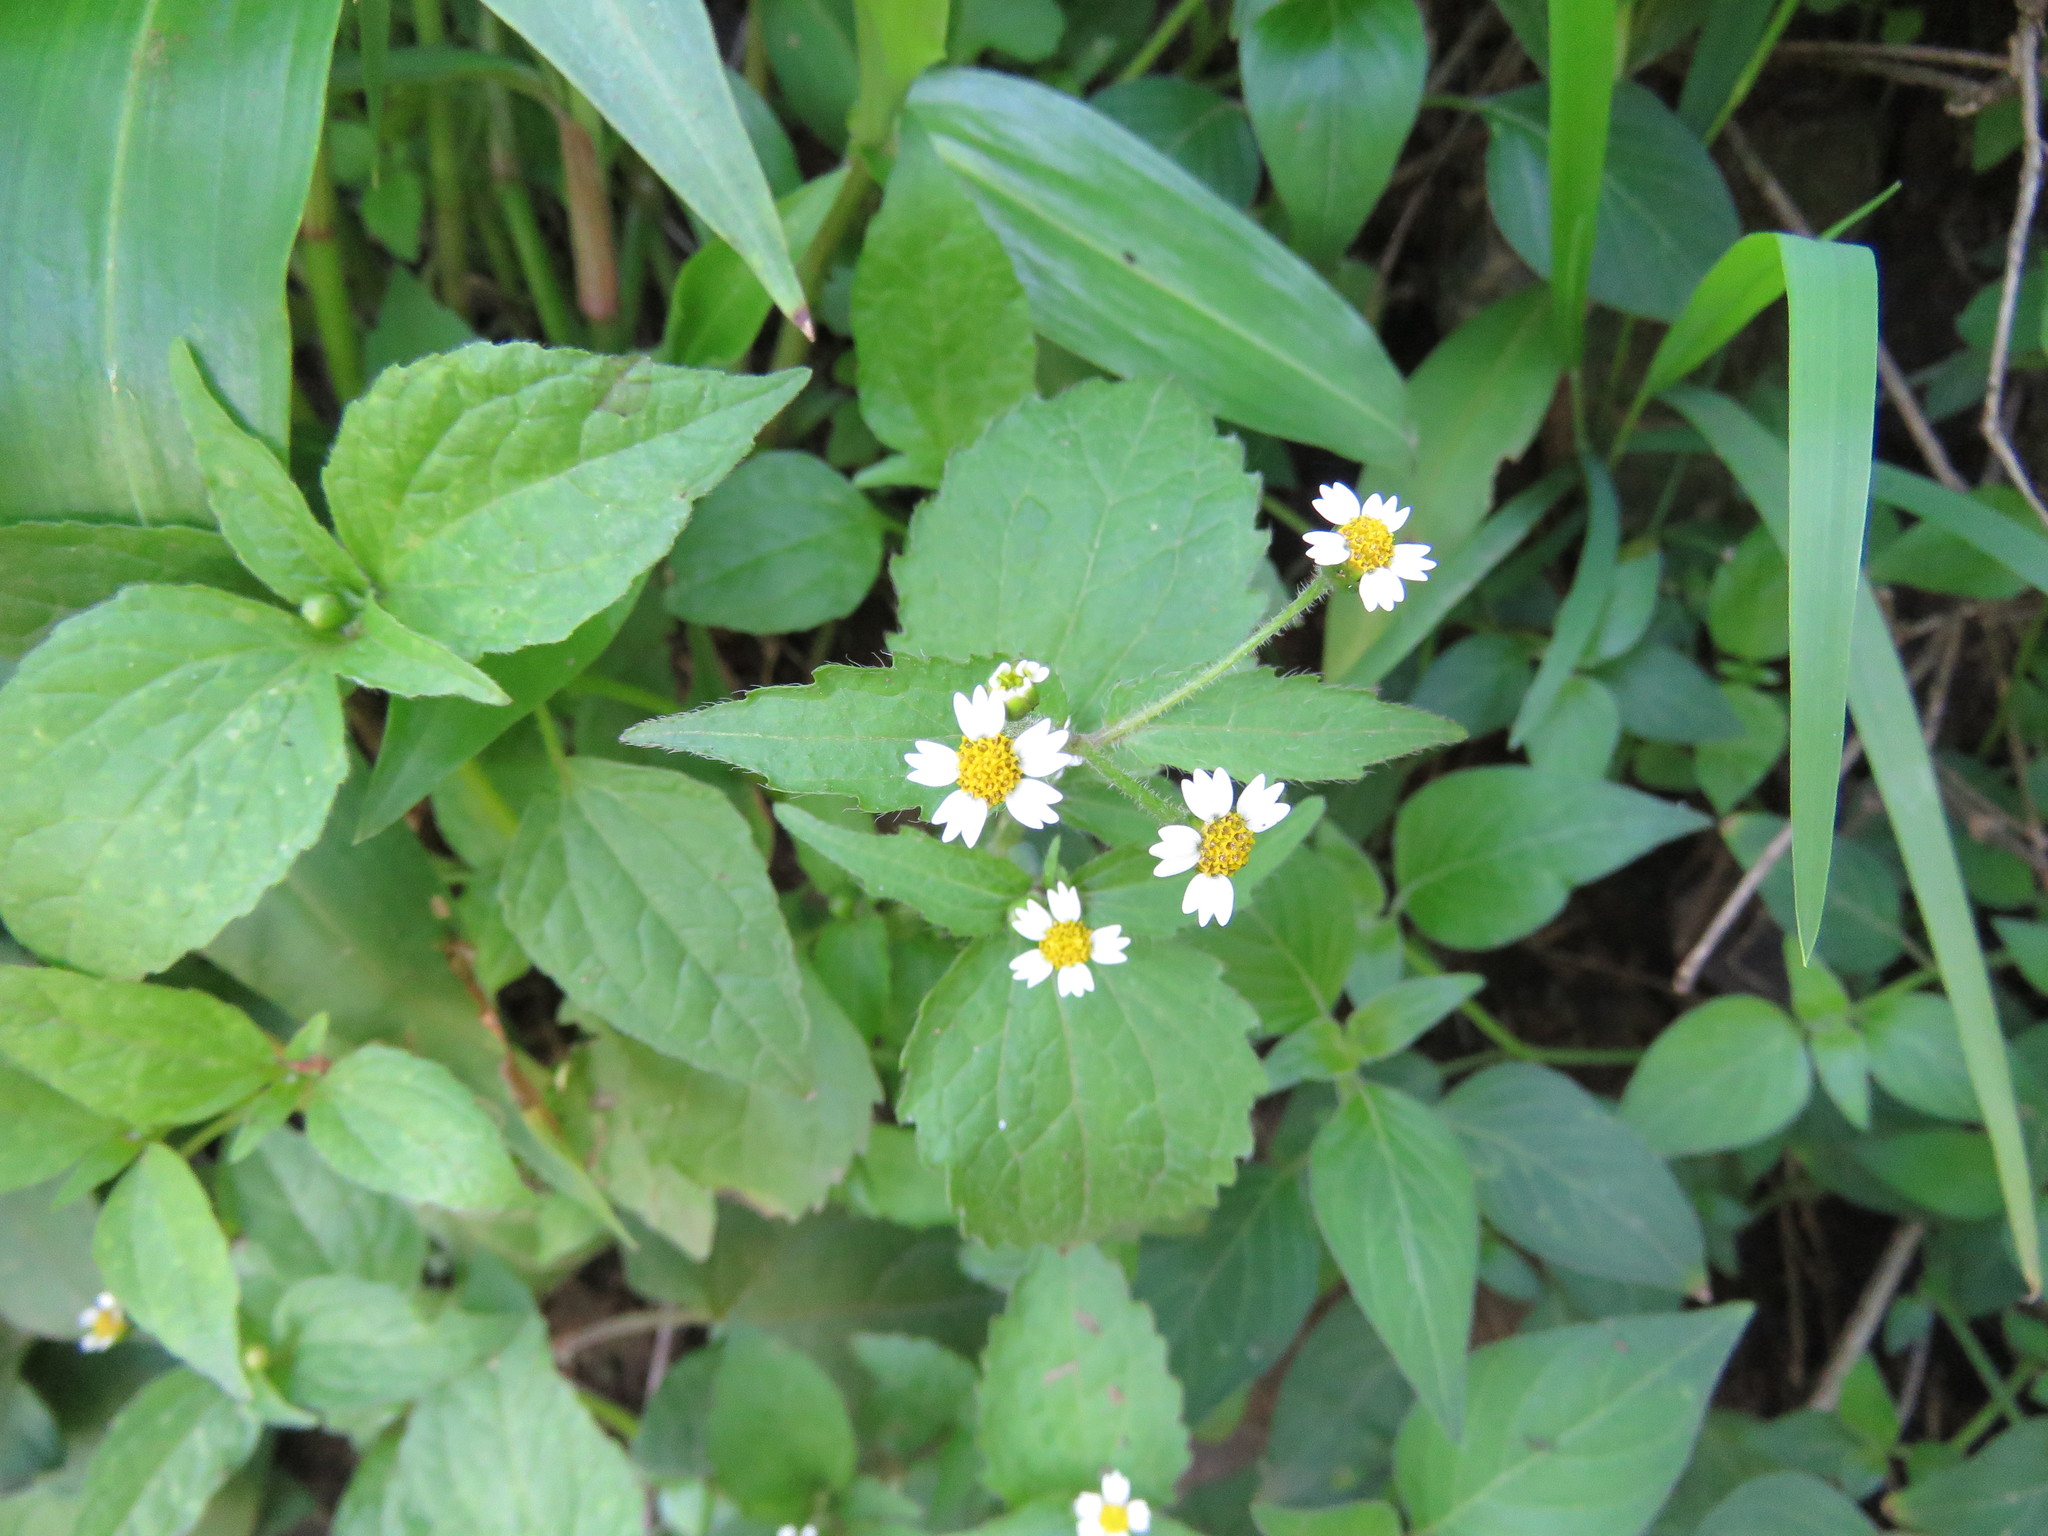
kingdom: Plantae
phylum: Tracheophyta
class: Magnoliopsida
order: Asterales
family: Asteraceae
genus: Tridax
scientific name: Tridax procumbens
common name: Coatbuttons
